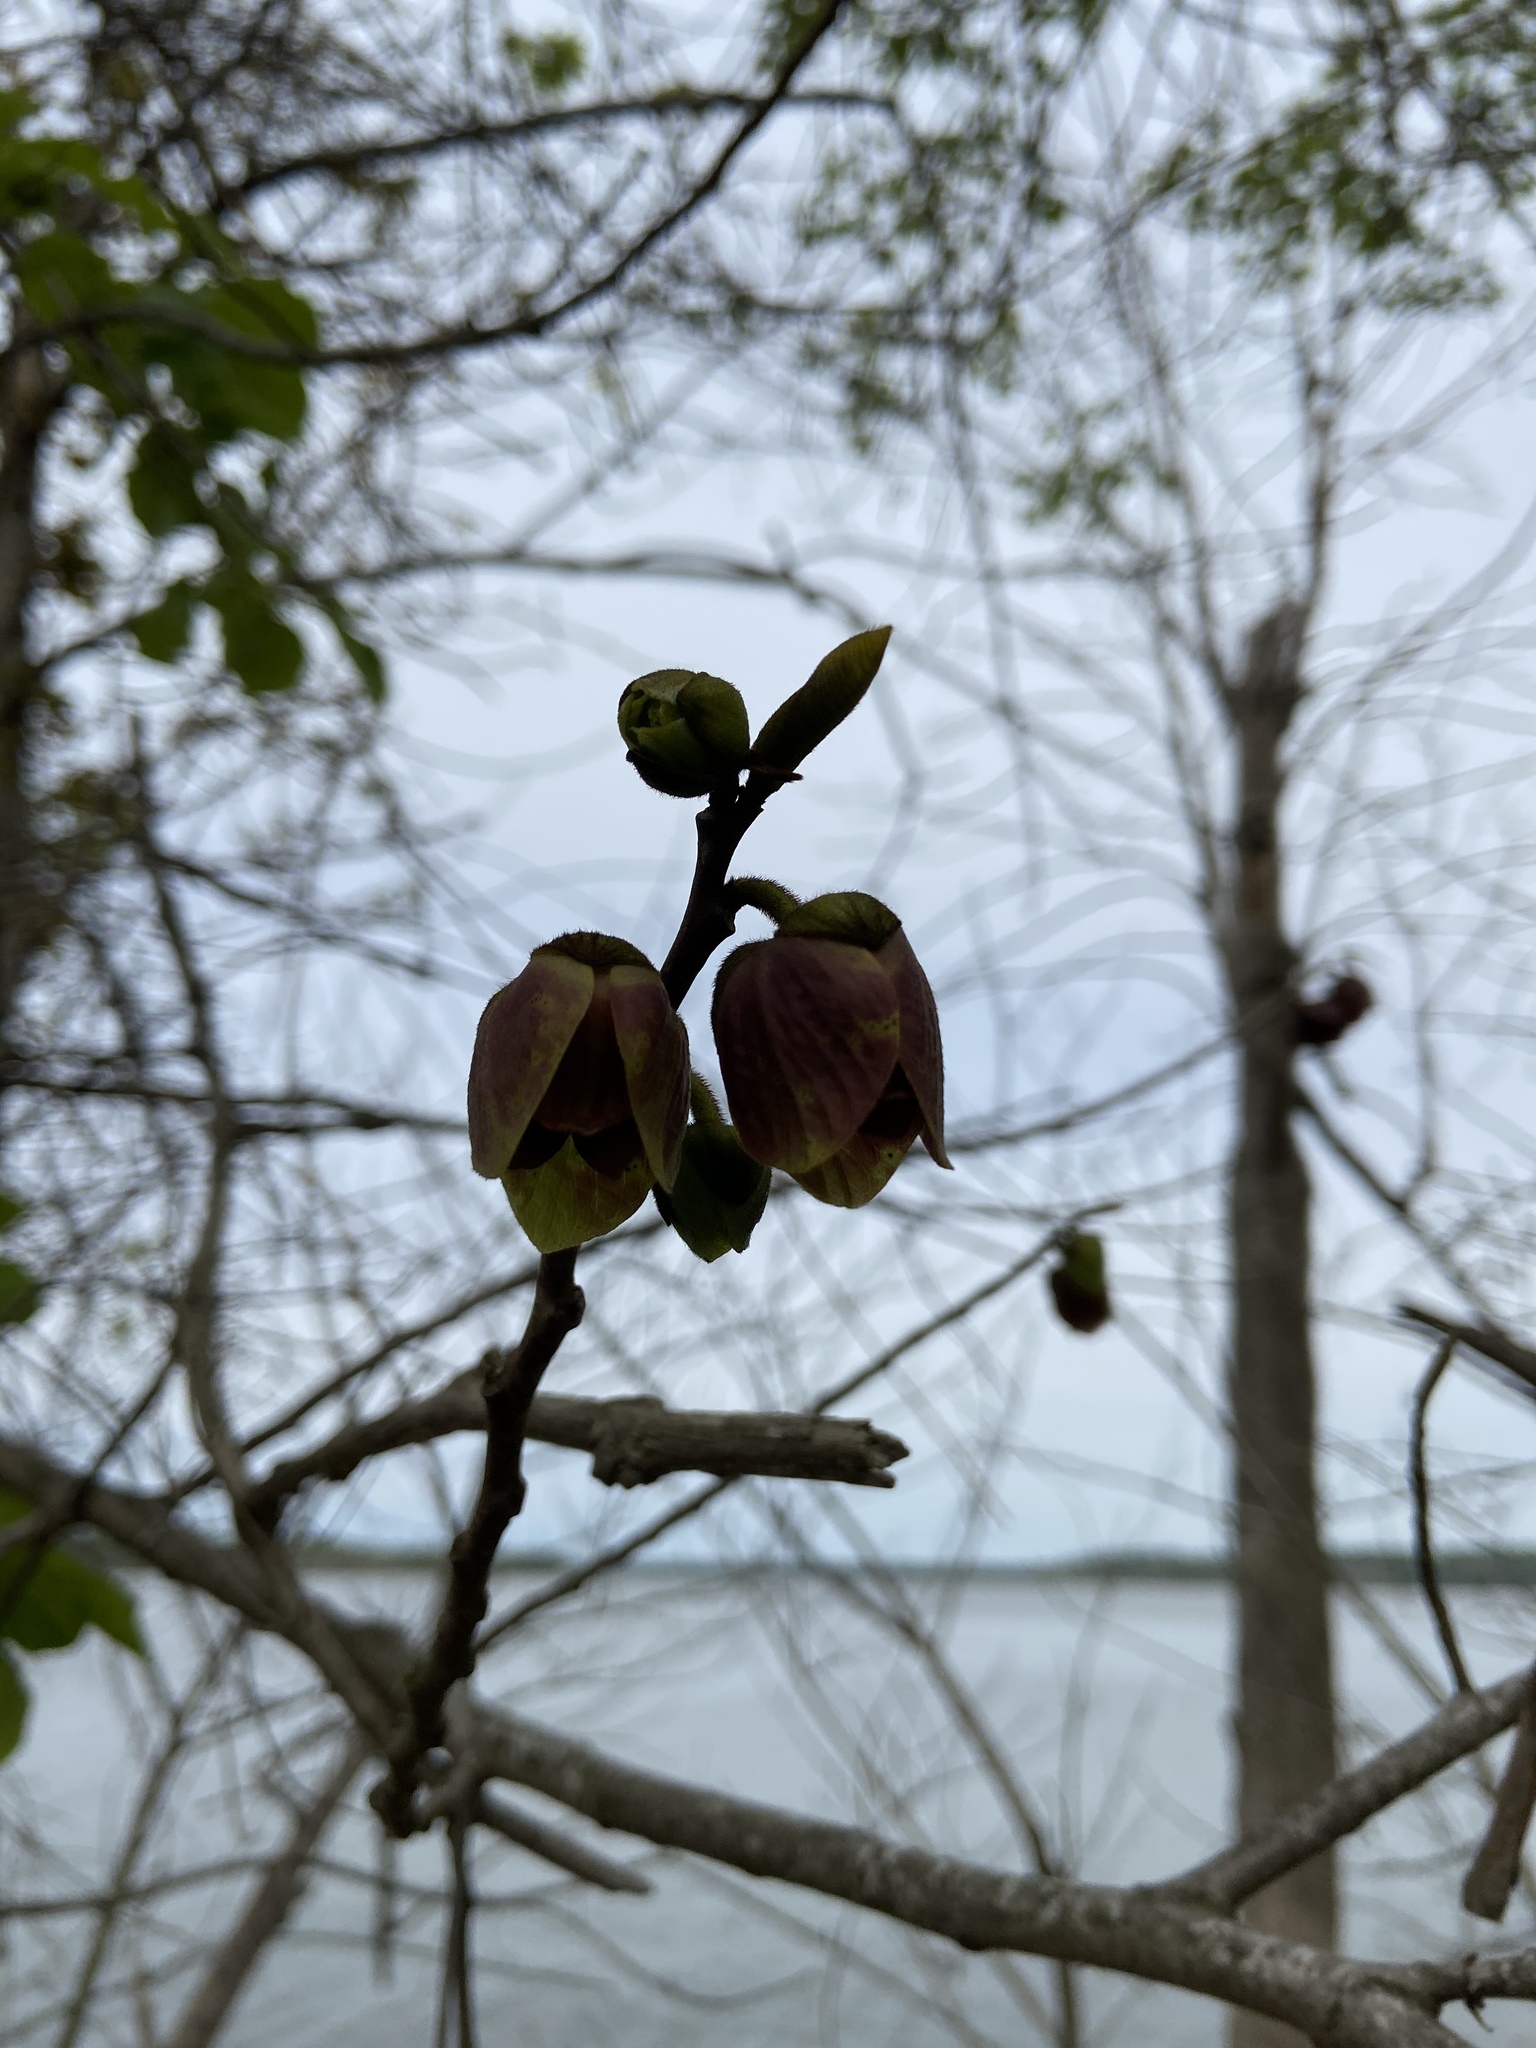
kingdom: Plantae
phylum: Tracheophyta
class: Magnoliopsida
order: Magnoliales
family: Annonaceae
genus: Asimina
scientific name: Asimina triloba
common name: Dog-banana
